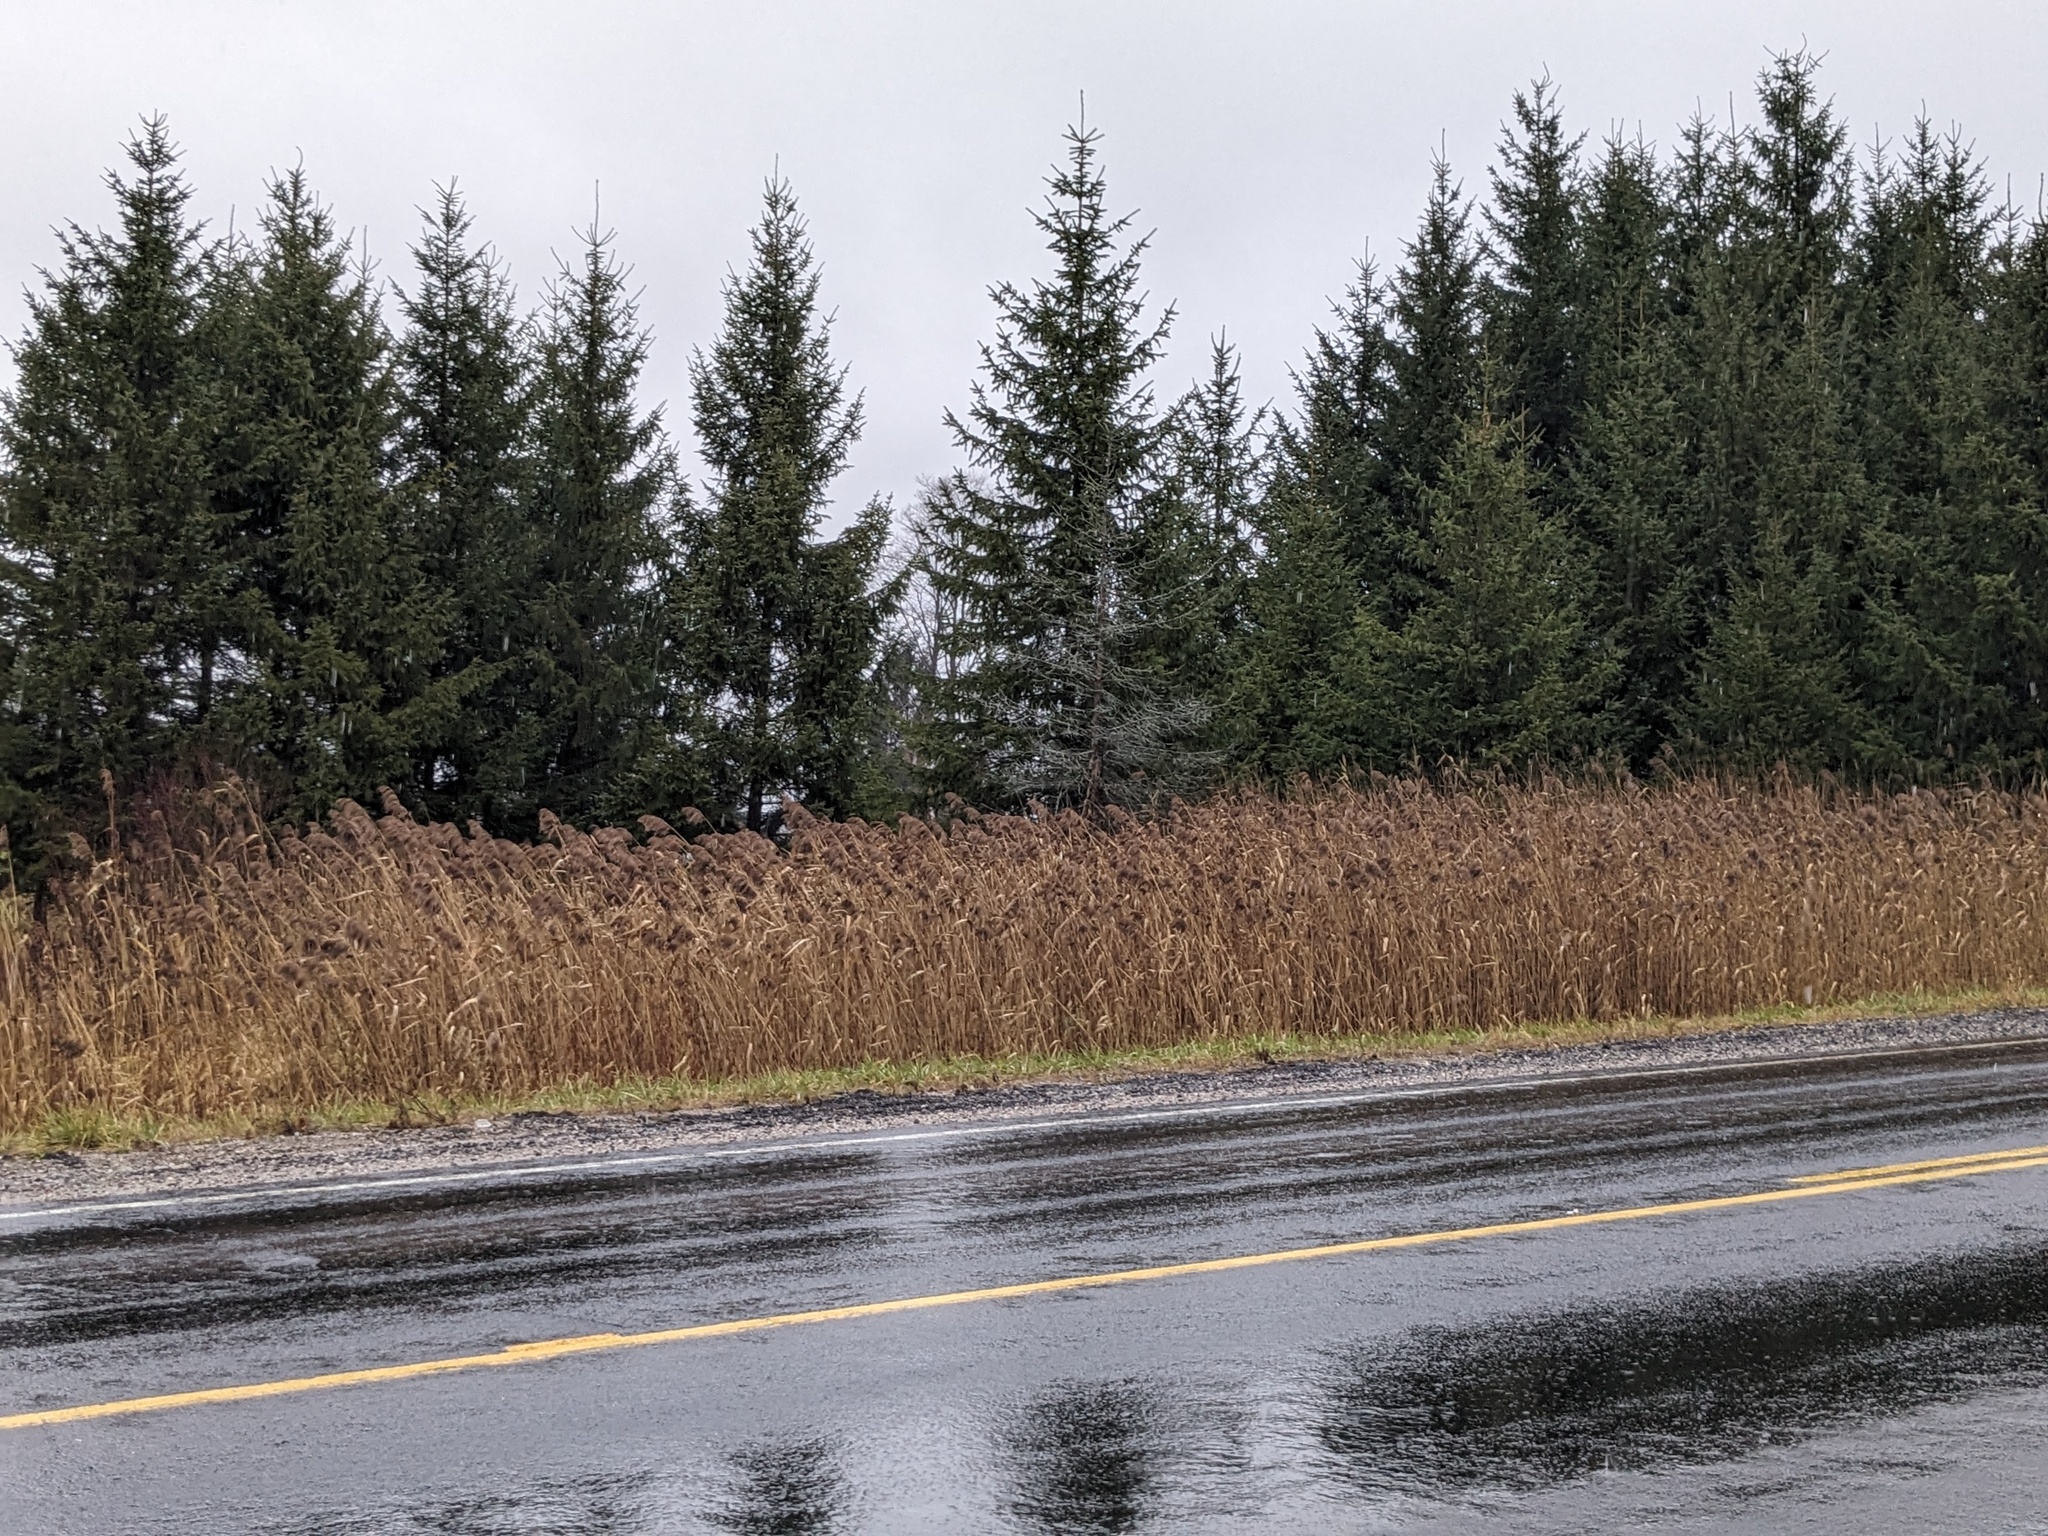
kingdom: Plantae
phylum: Tracheophyta
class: Liliopsida
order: Poales
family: Poaceae
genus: Phragmites
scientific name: Phragmites australis
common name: Common reed
